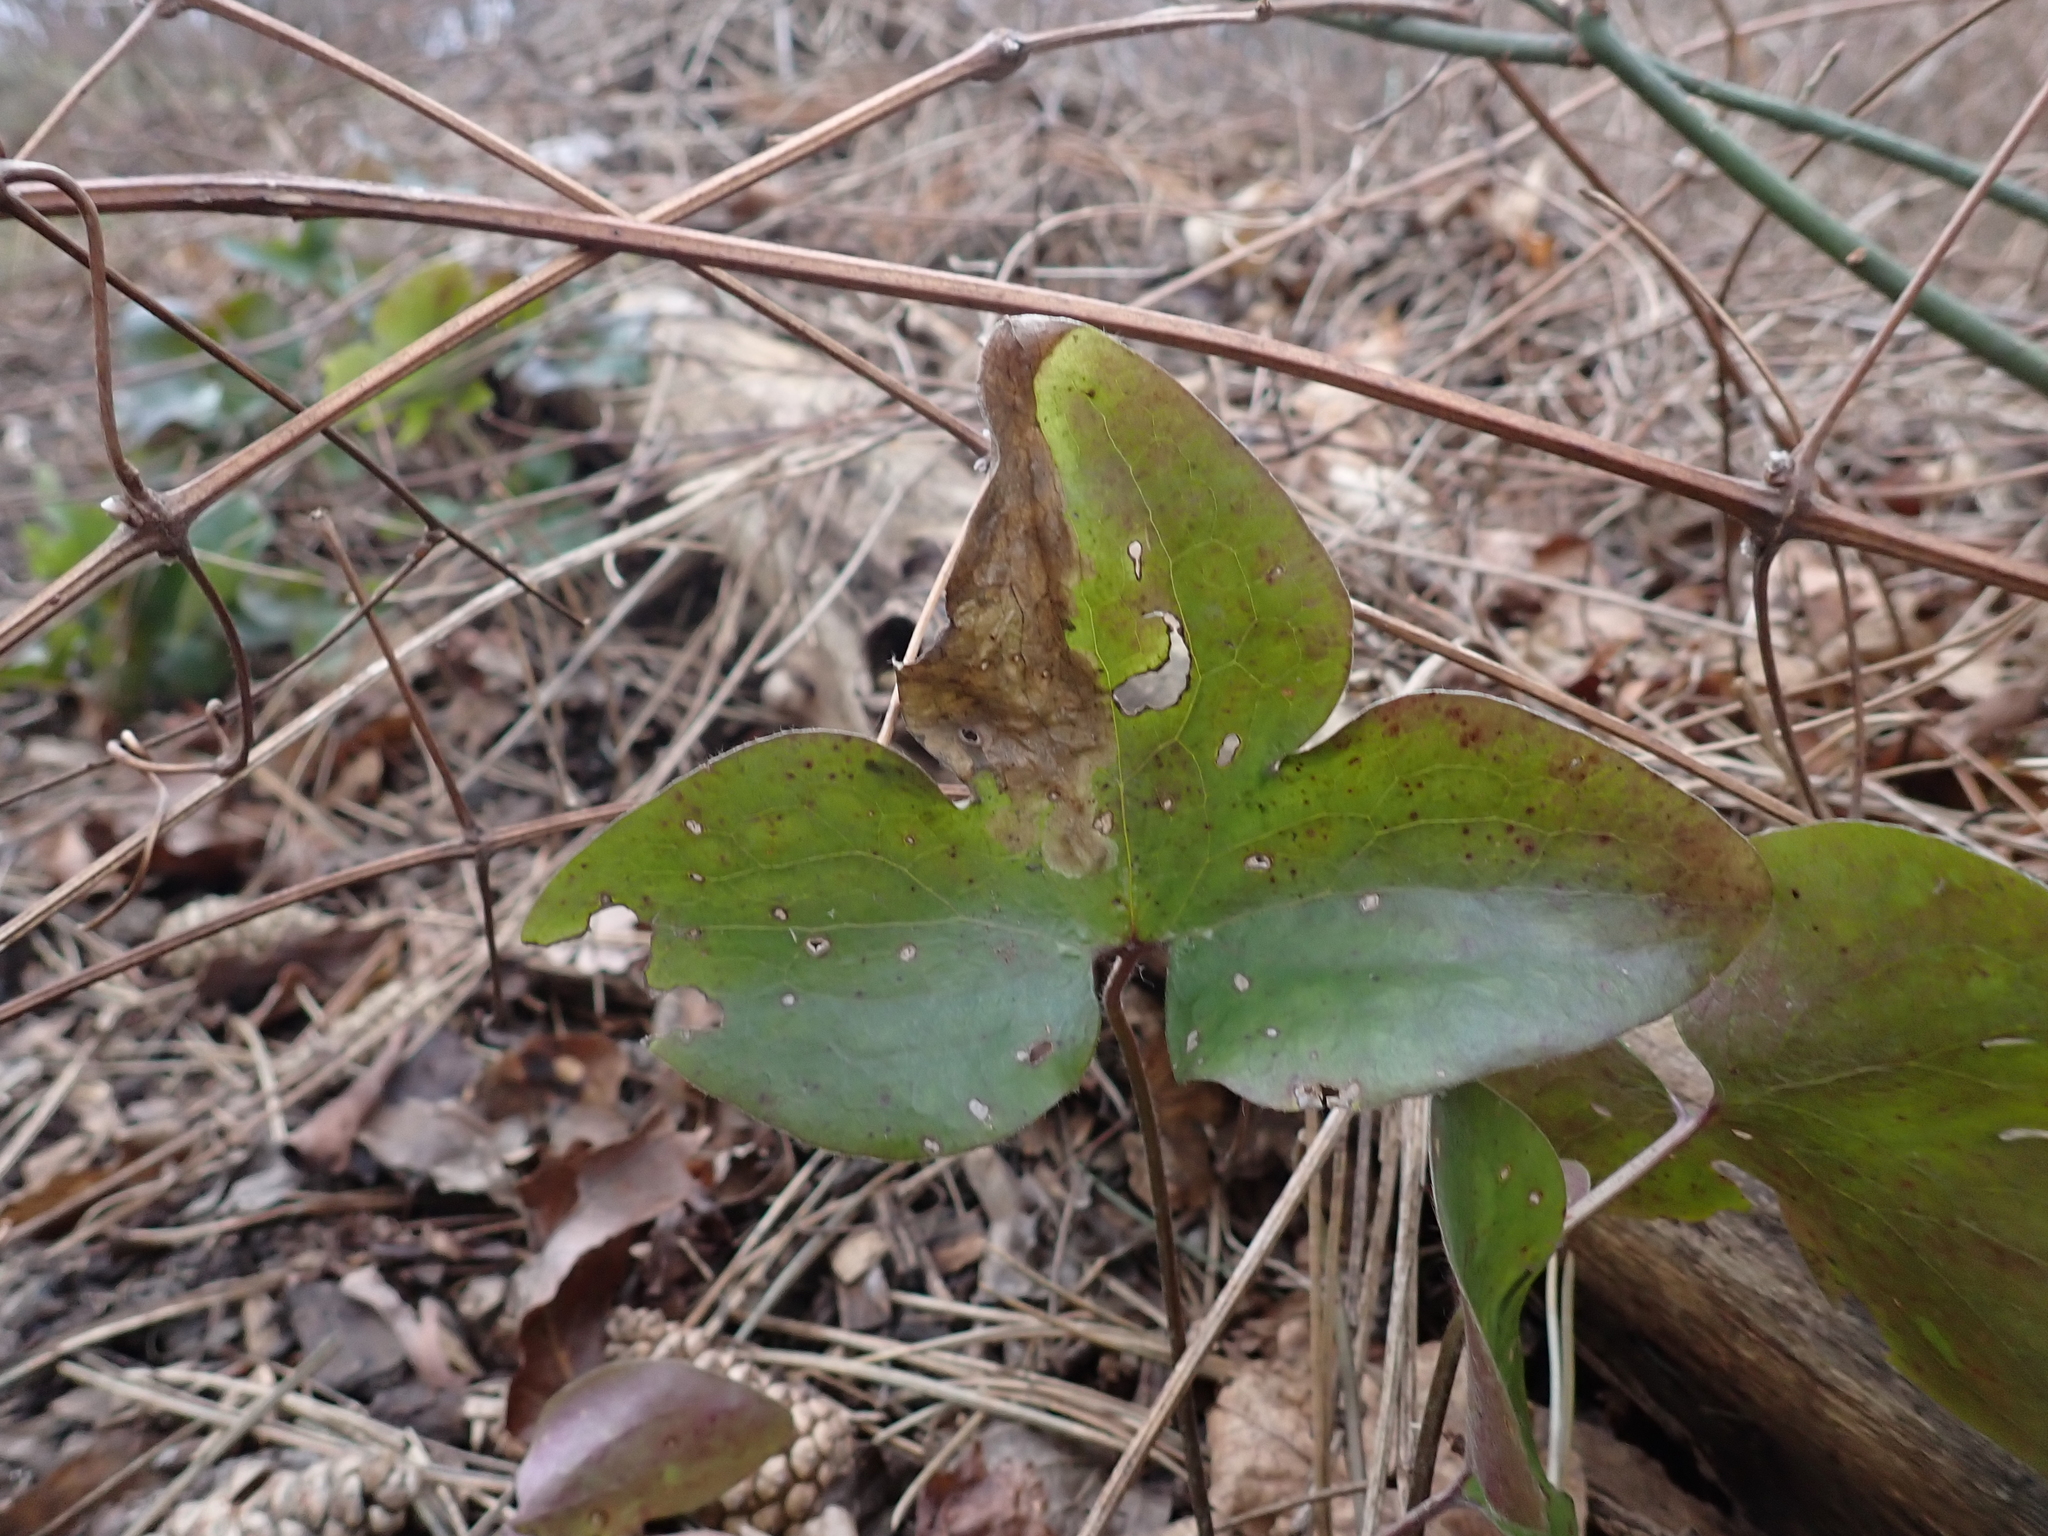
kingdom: Animalia
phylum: Arthropoda
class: Insecta
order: Diptera
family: Agromyzidae
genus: Phytomyza
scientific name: Phytomyza abdominalis
